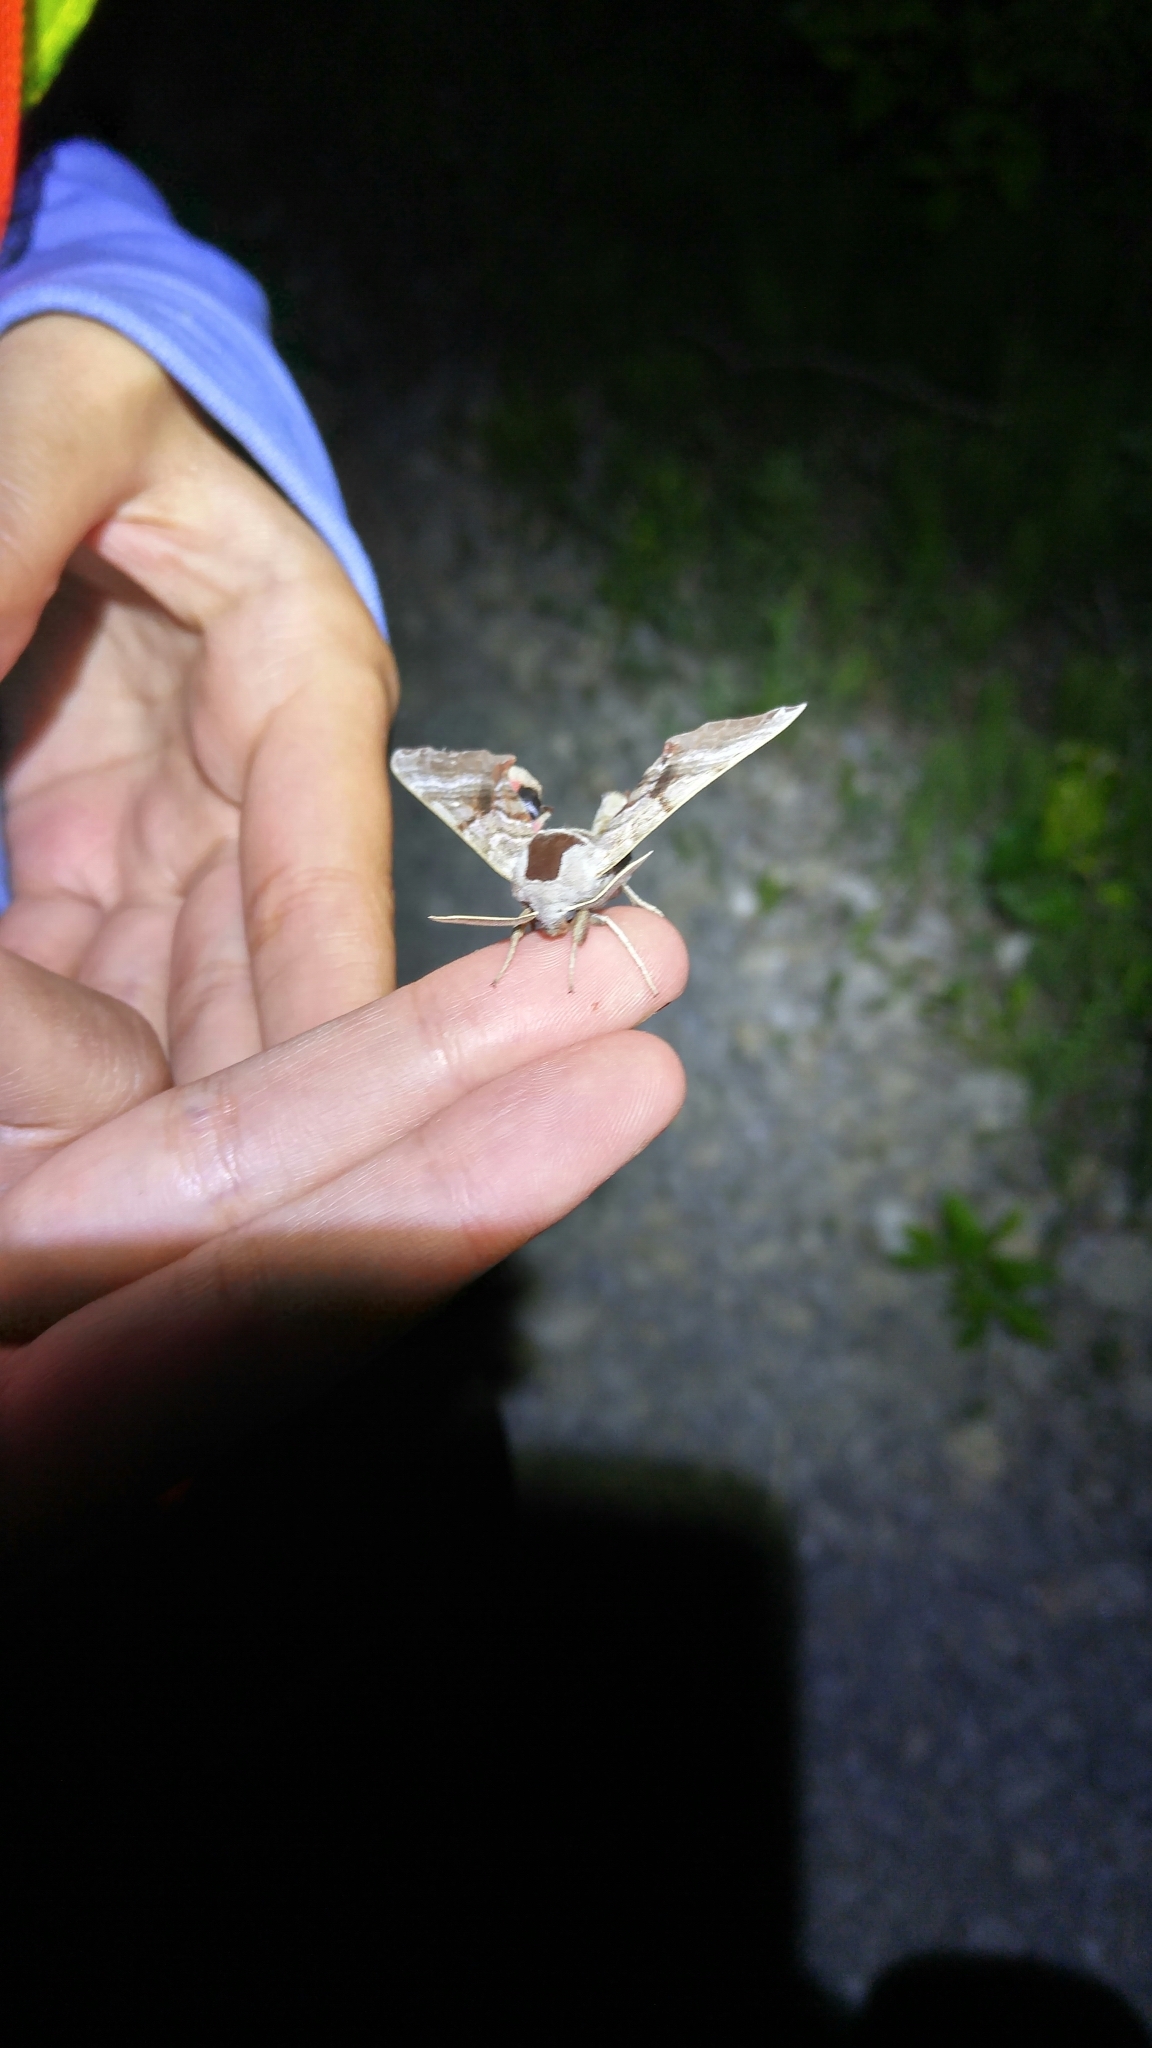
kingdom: Animalia
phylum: Arthropoda
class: Insecta
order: Lepidoptera
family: Sphingidae
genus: Smerinthus
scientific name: Smerinthus jamaicensis
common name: Twin spotted sphinx
